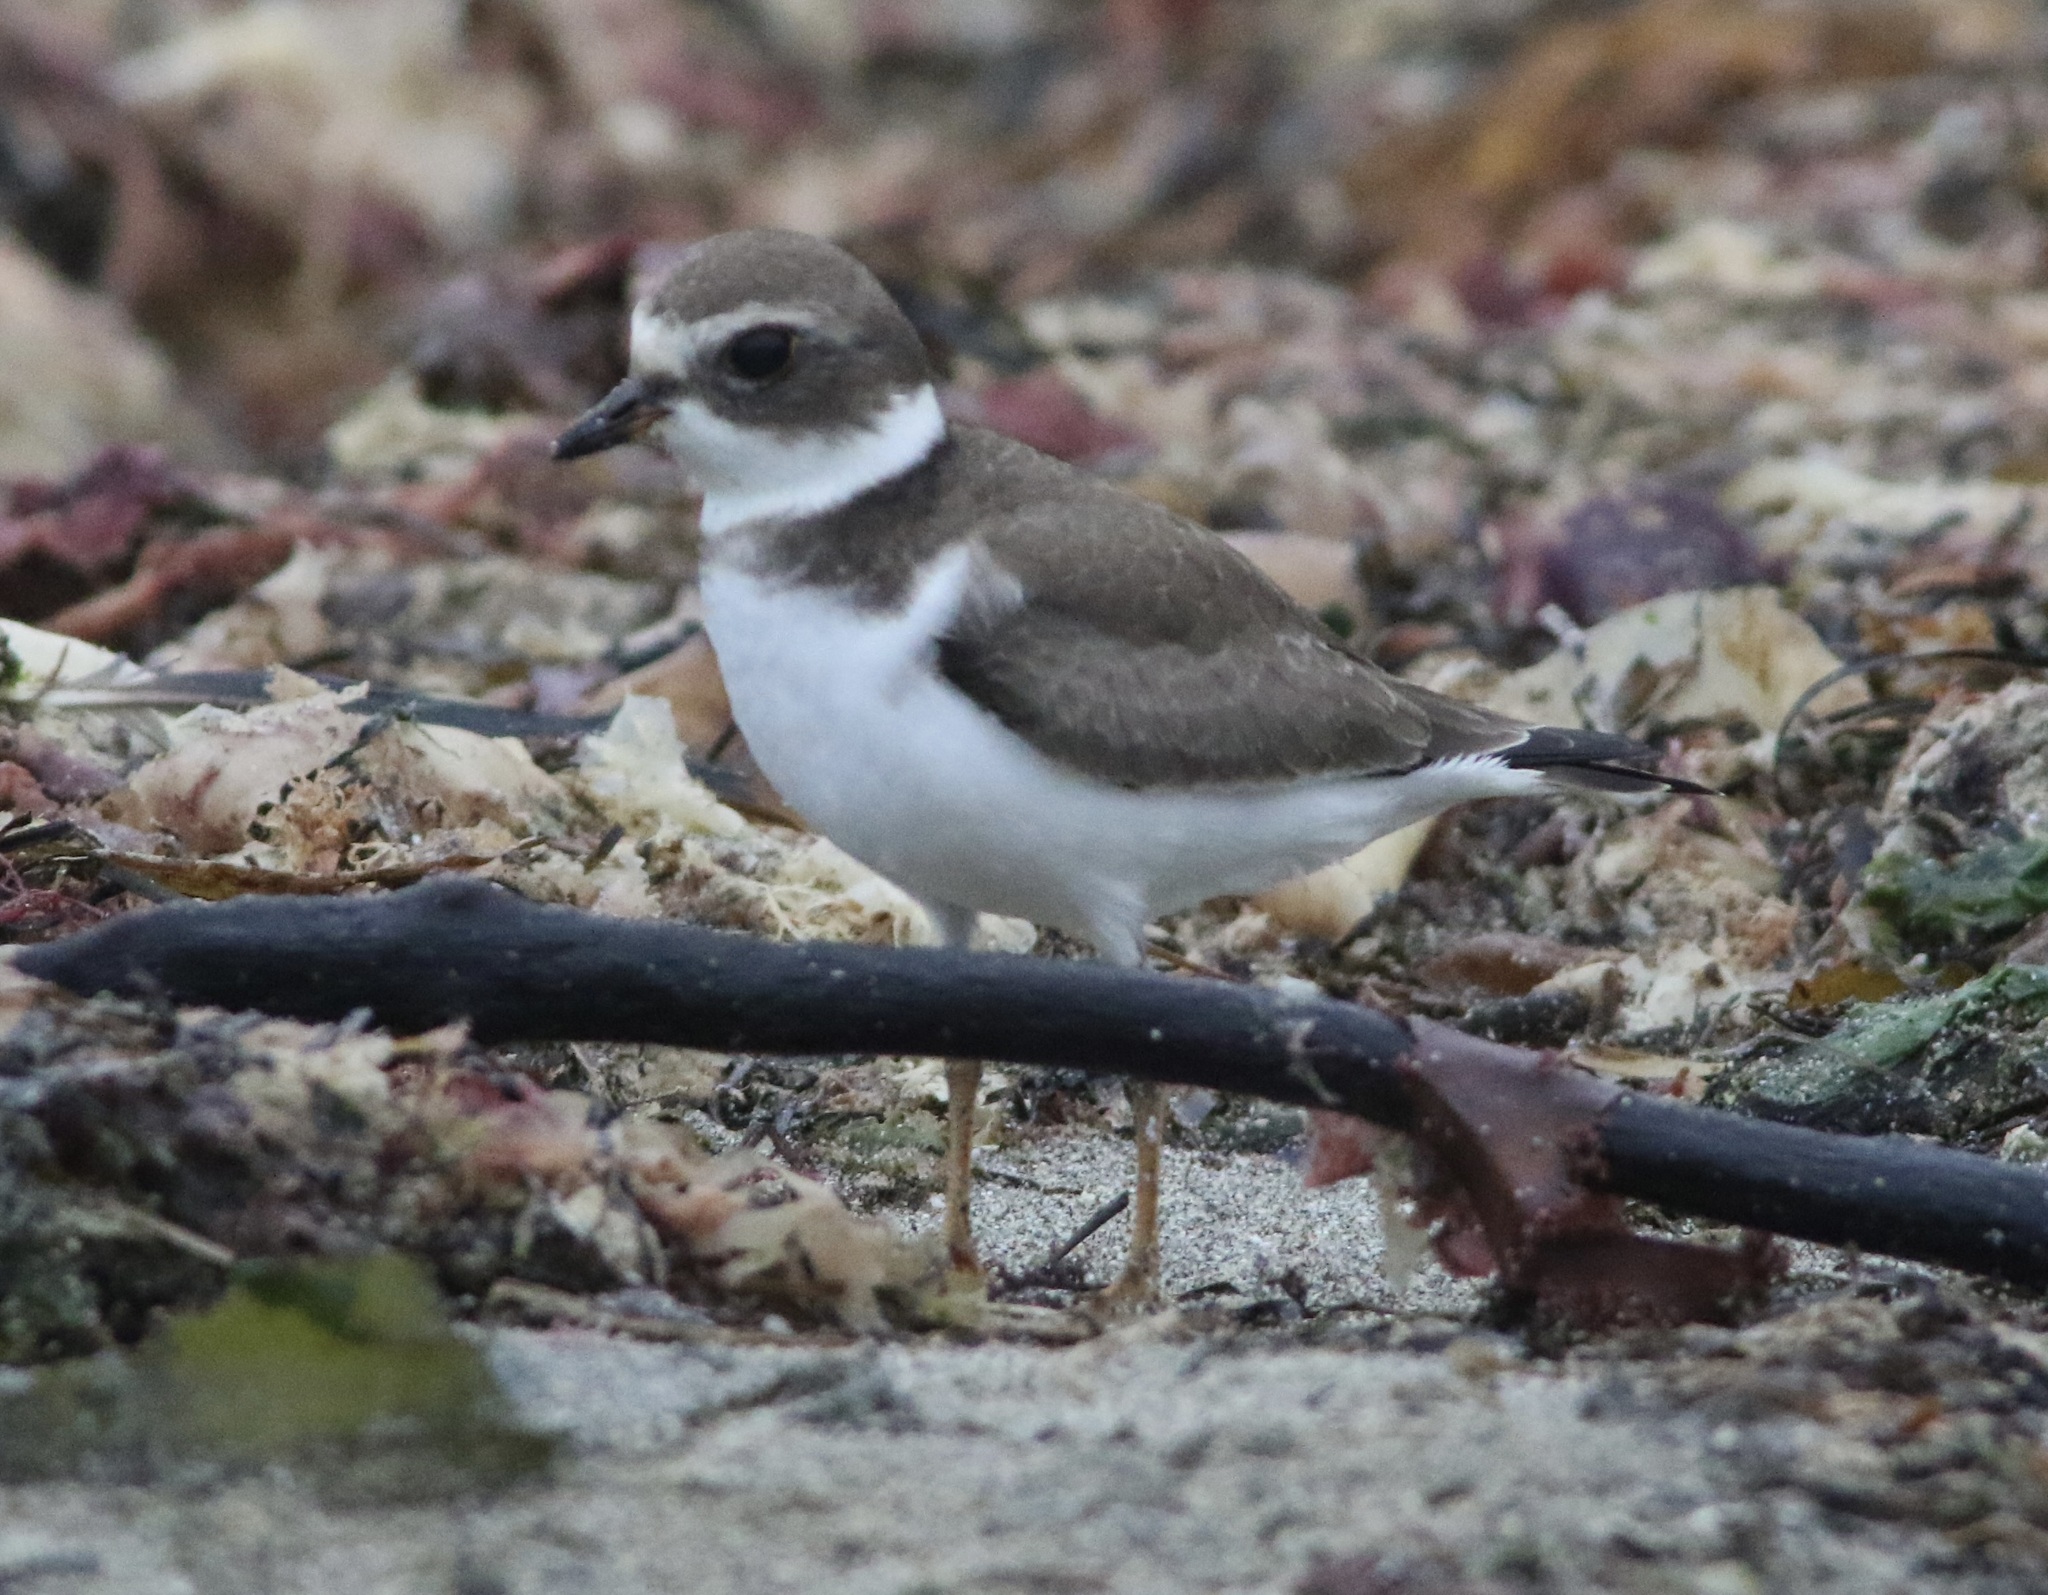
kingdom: Animalia
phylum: Chordata
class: Aves
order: Charadriiformes
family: Charadriidae
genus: Charadrius
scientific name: Charadrius semipalmatus
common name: Semipalmated plover
